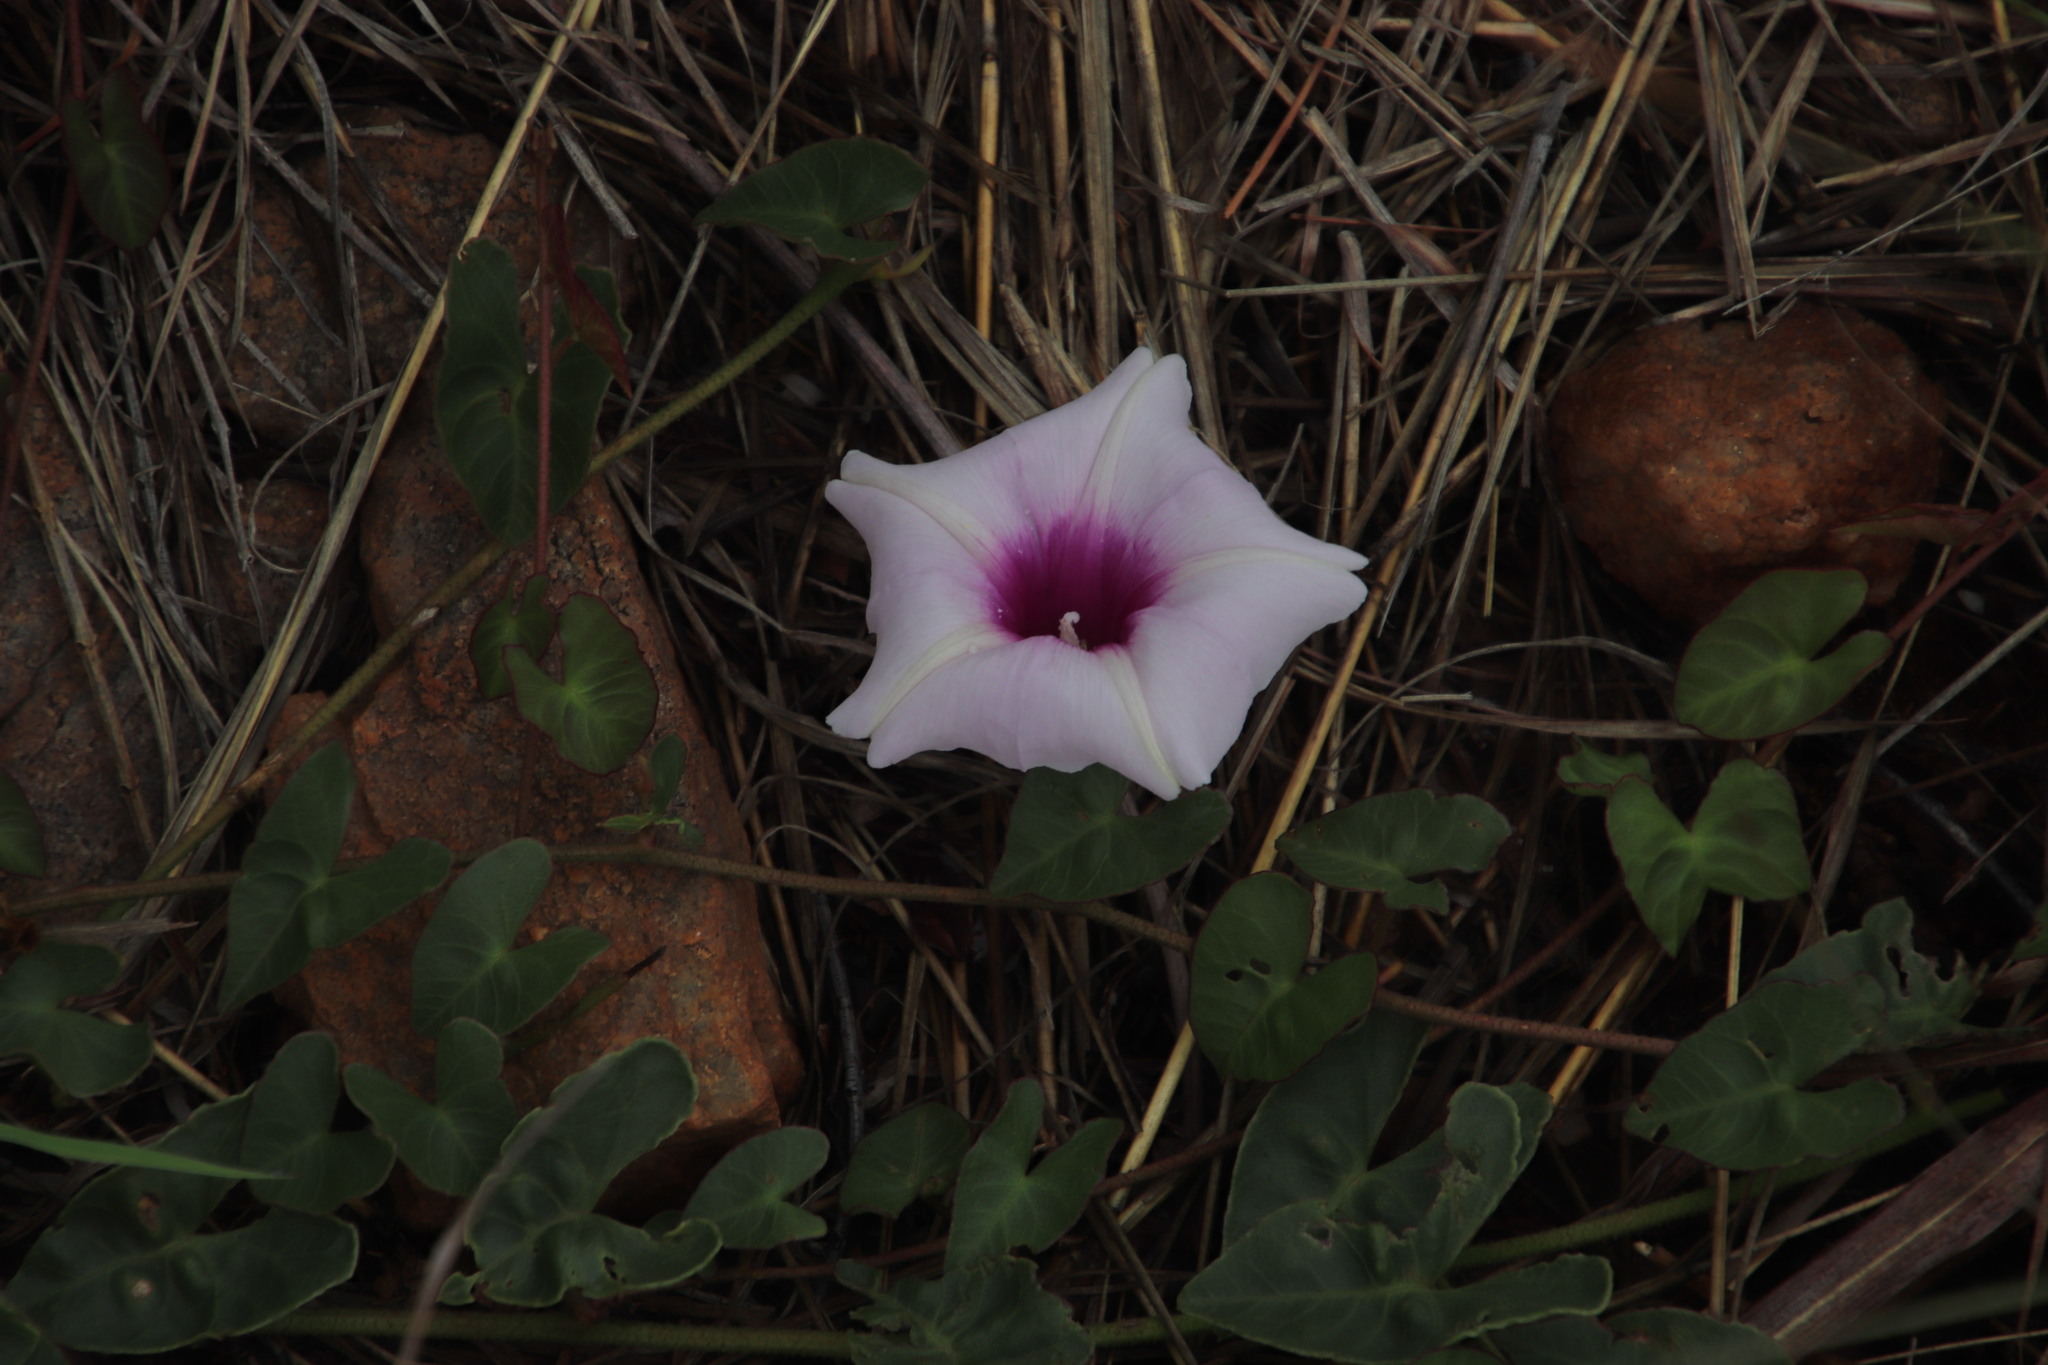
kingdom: Plantae
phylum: Tracheophyta
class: Magnoliopsida
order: Solanales
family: Convolvulaceae
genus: Ipomoea
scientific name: Ipomoea bathycolpos
